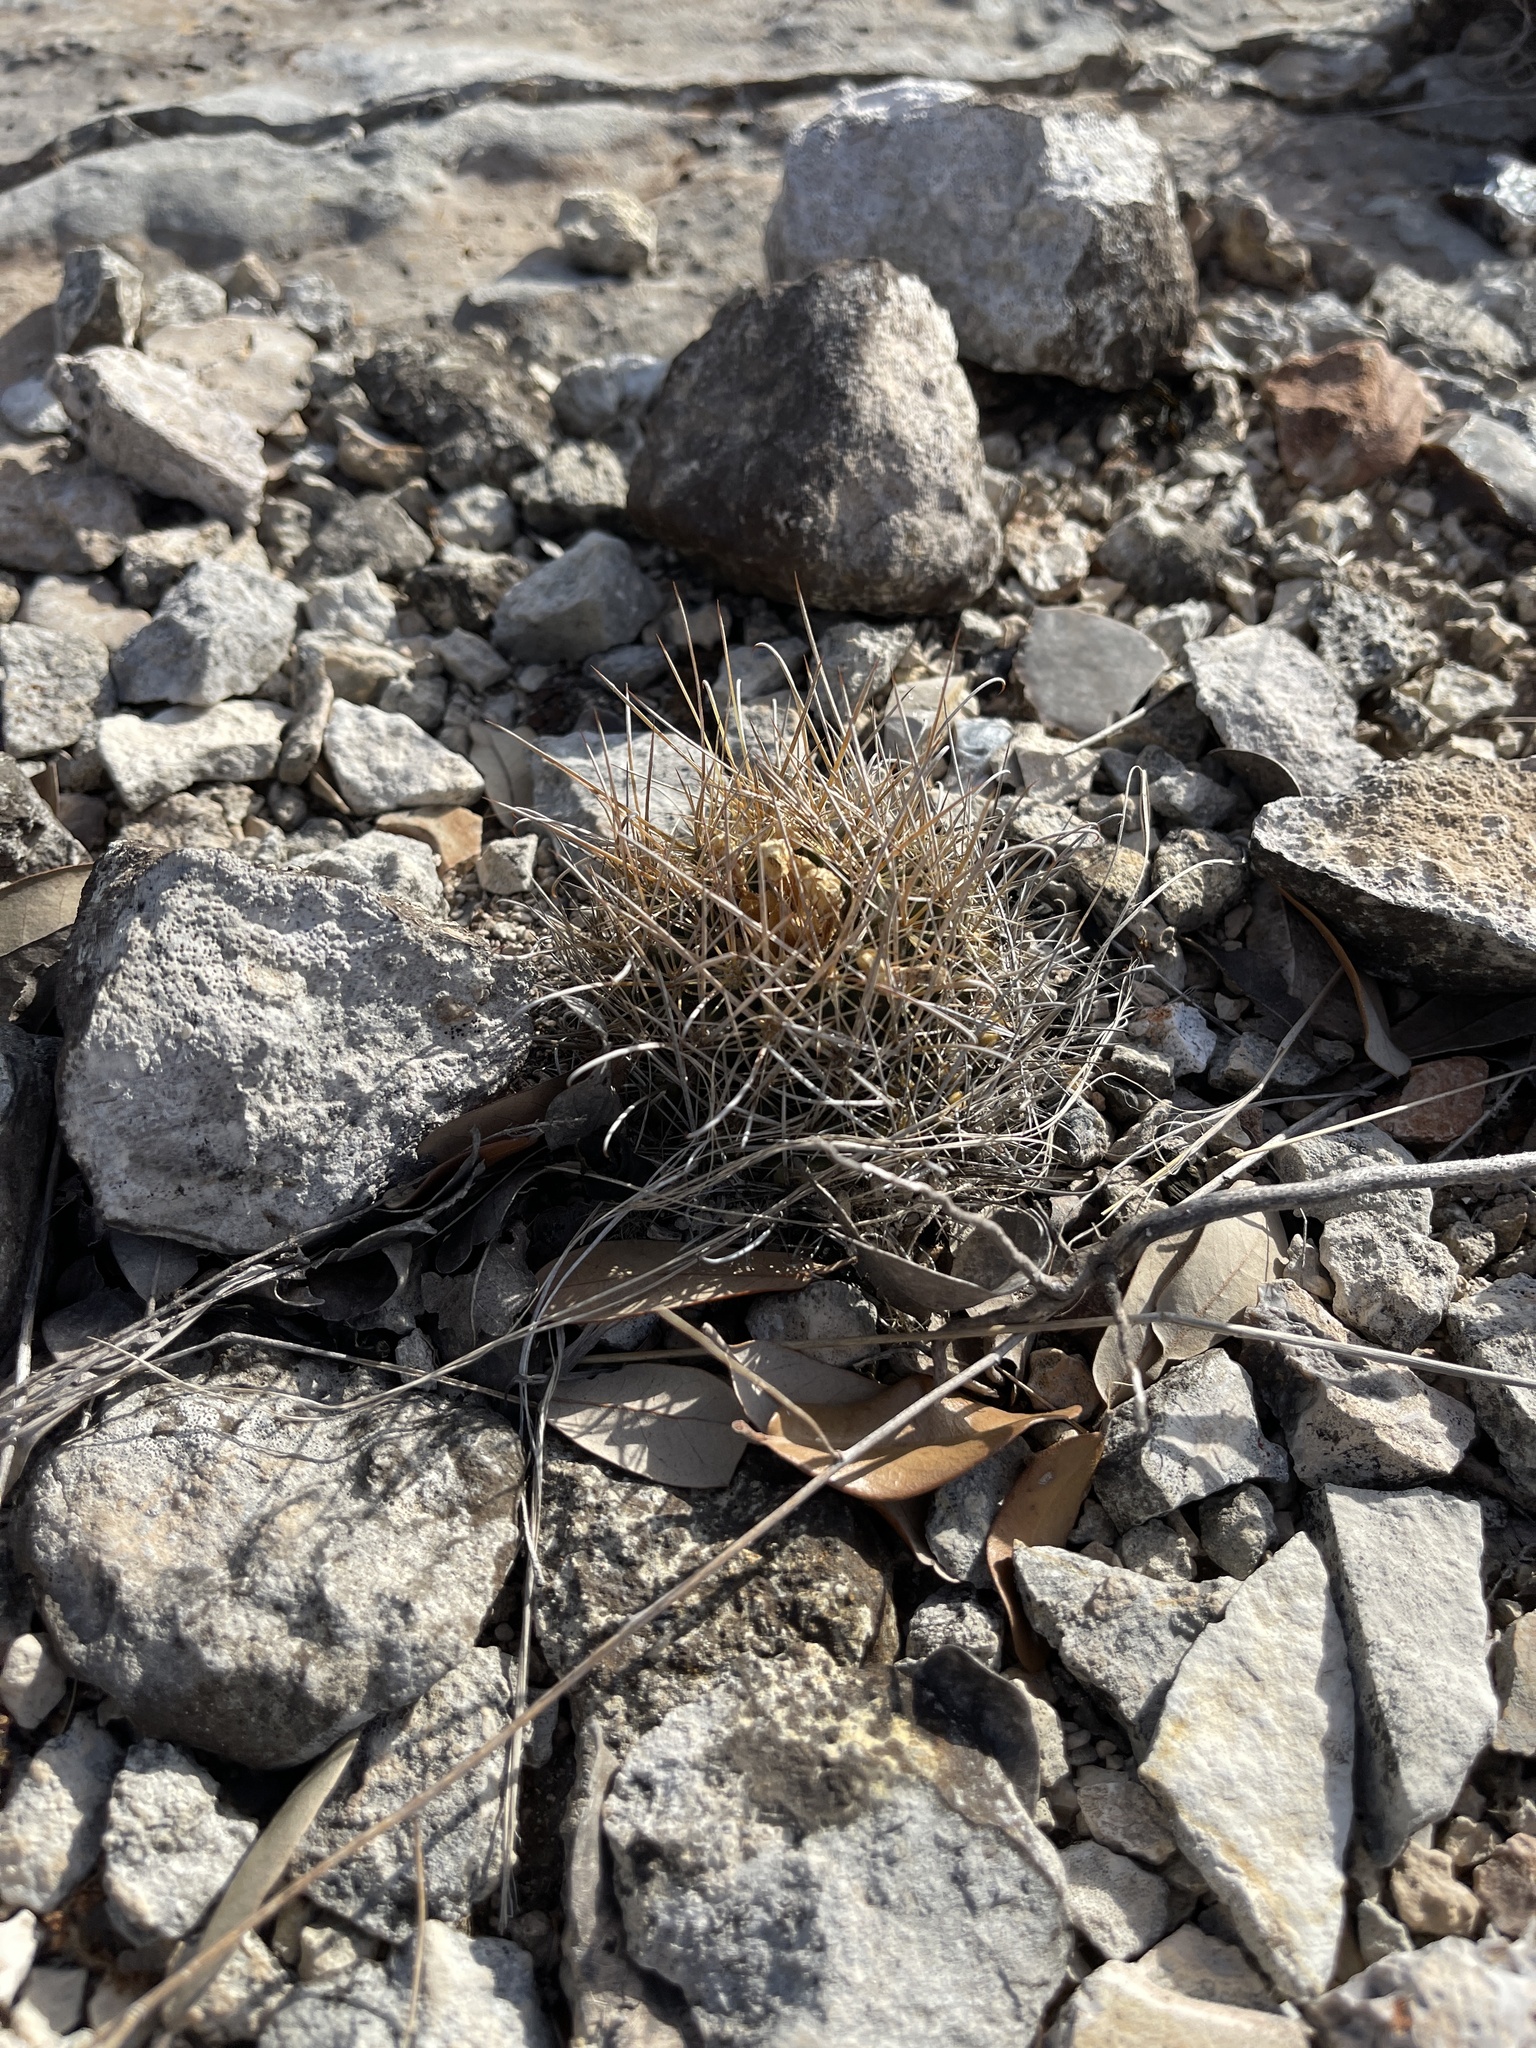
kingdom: Plantae
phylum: Tracheophyta
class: Magnoliopsida
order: Caryophyllales
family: Cactaceae
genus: Sclerocactus
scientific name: Sclerocactus brevihamatus
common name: Engelmann's fishhook cactus
